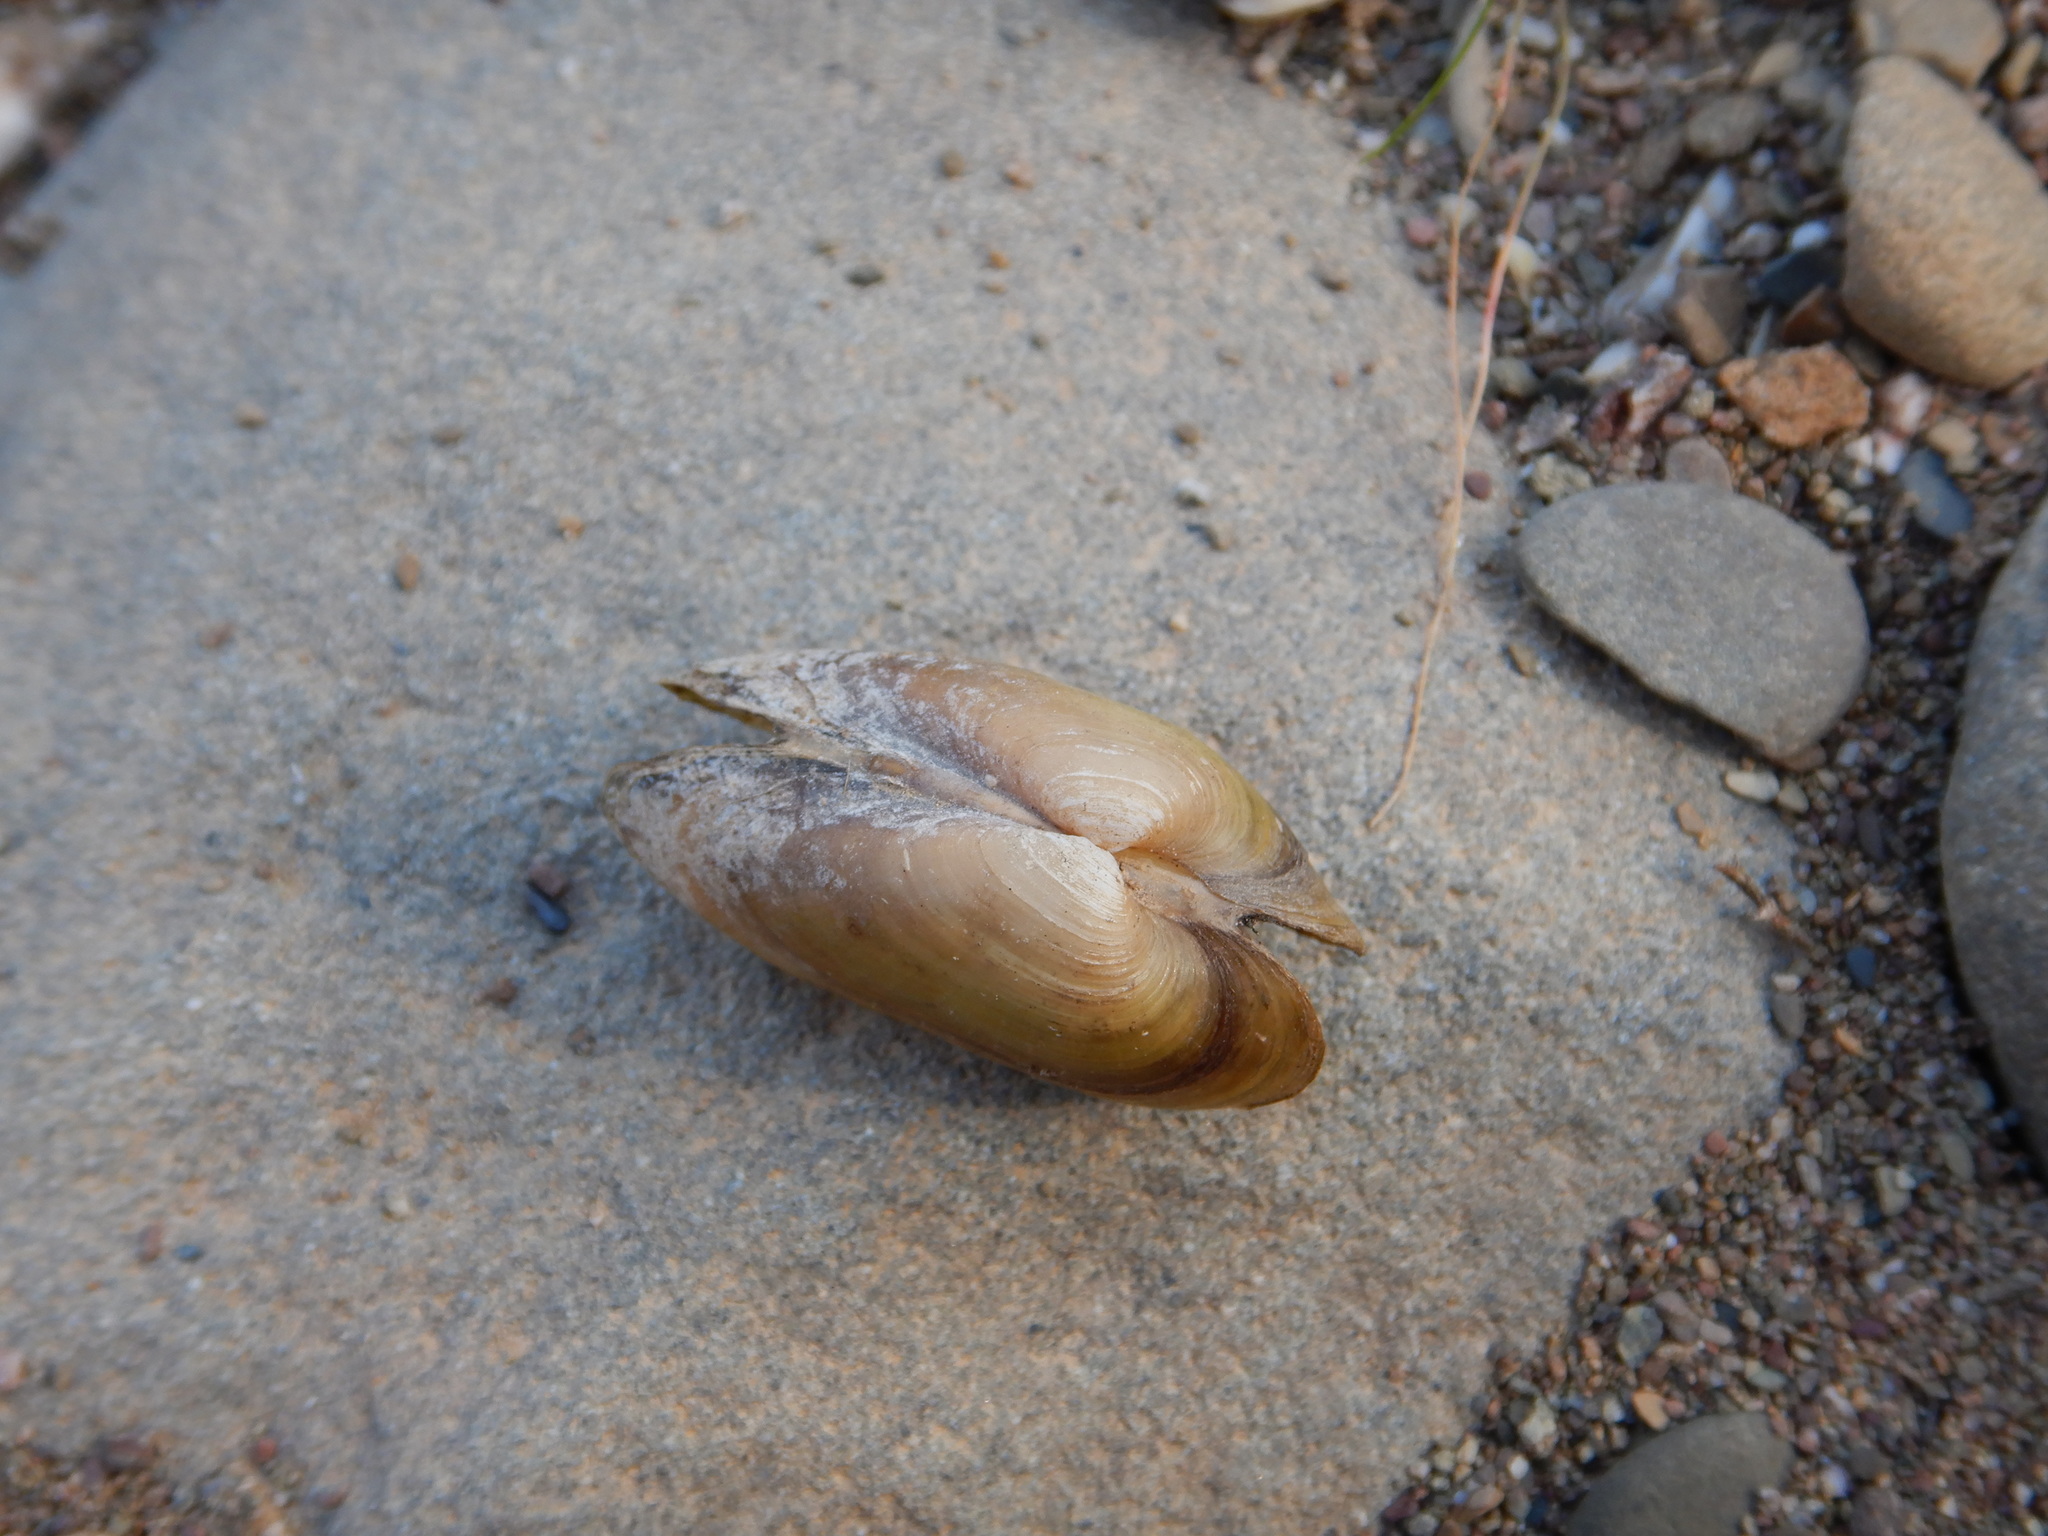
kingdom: Animalia
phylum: Mollusca
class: Bivalvia
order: Unionida
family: Unionidae
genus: Unio
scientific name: Unio delphinus
